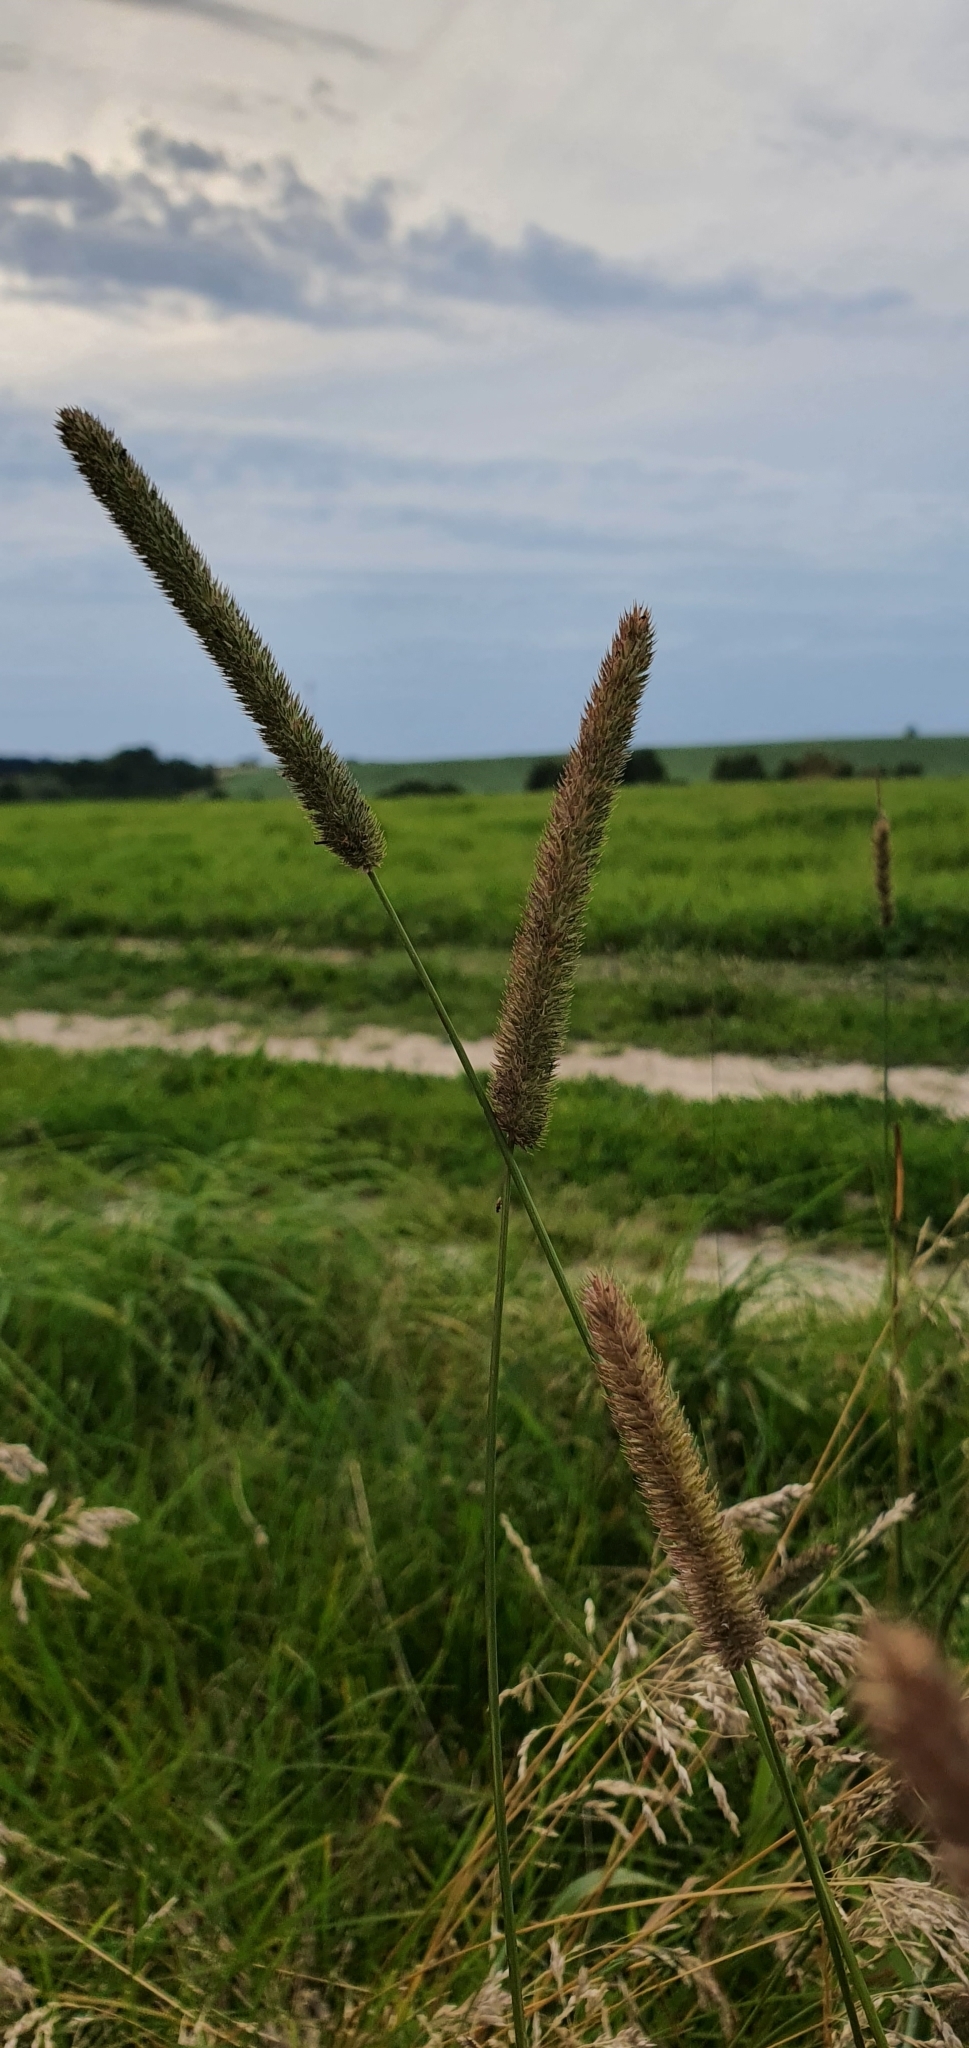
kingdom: Plantae
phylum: Tracheophyta
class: Liliopsida
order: Poales
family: Poaceae
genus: Phleum
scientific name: Phleum pratense
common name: Timothy grass
